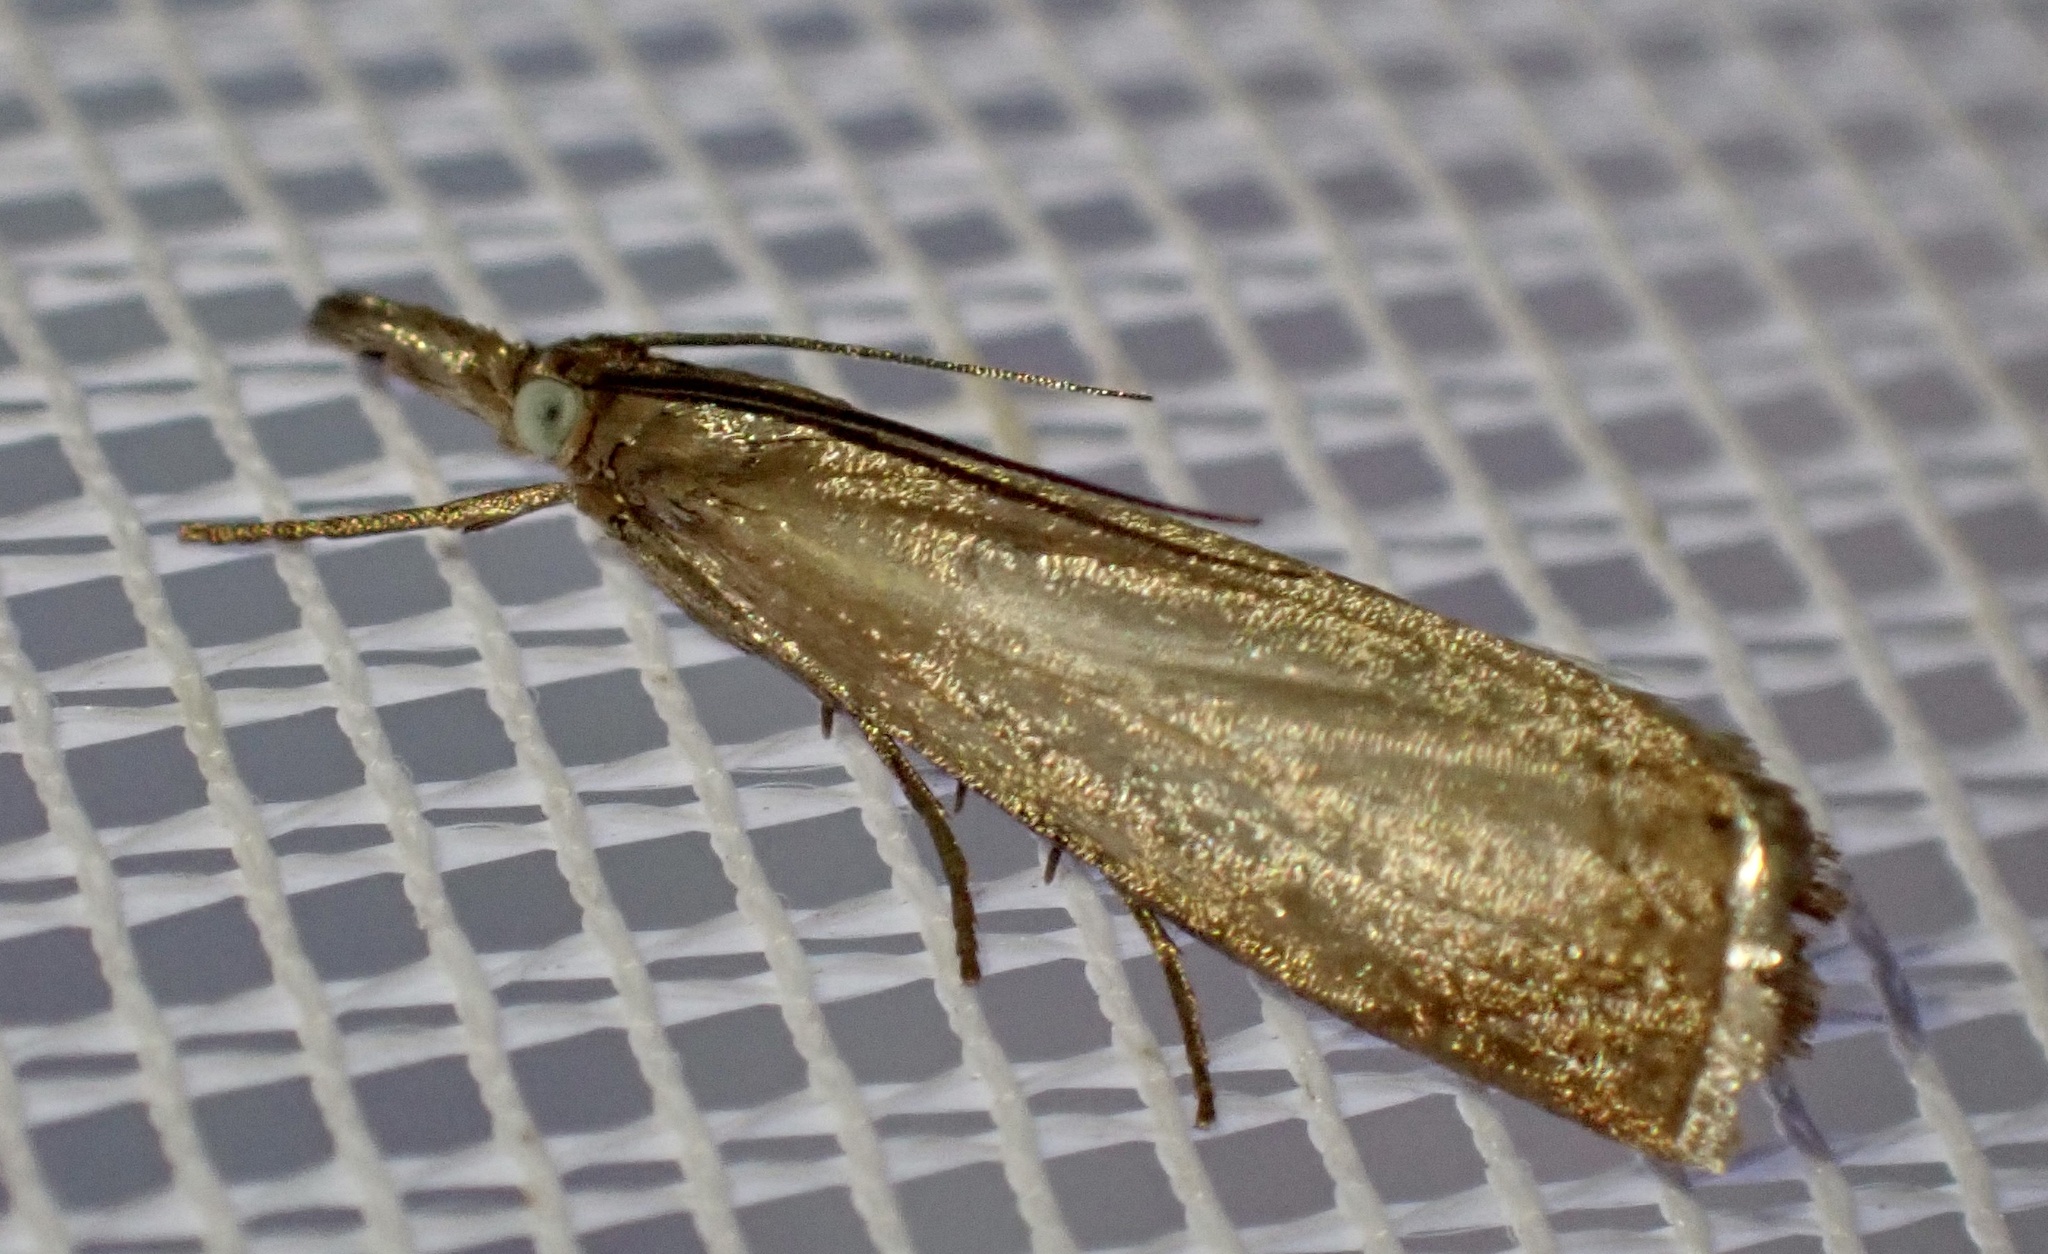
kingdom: Animalia
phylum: Arthropoda
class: Insecta
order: Lepidoptera
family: Crambidae
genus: Chrysoteuchia
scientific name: Chrysoteuchia culmella
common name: Garden grass-veneer
